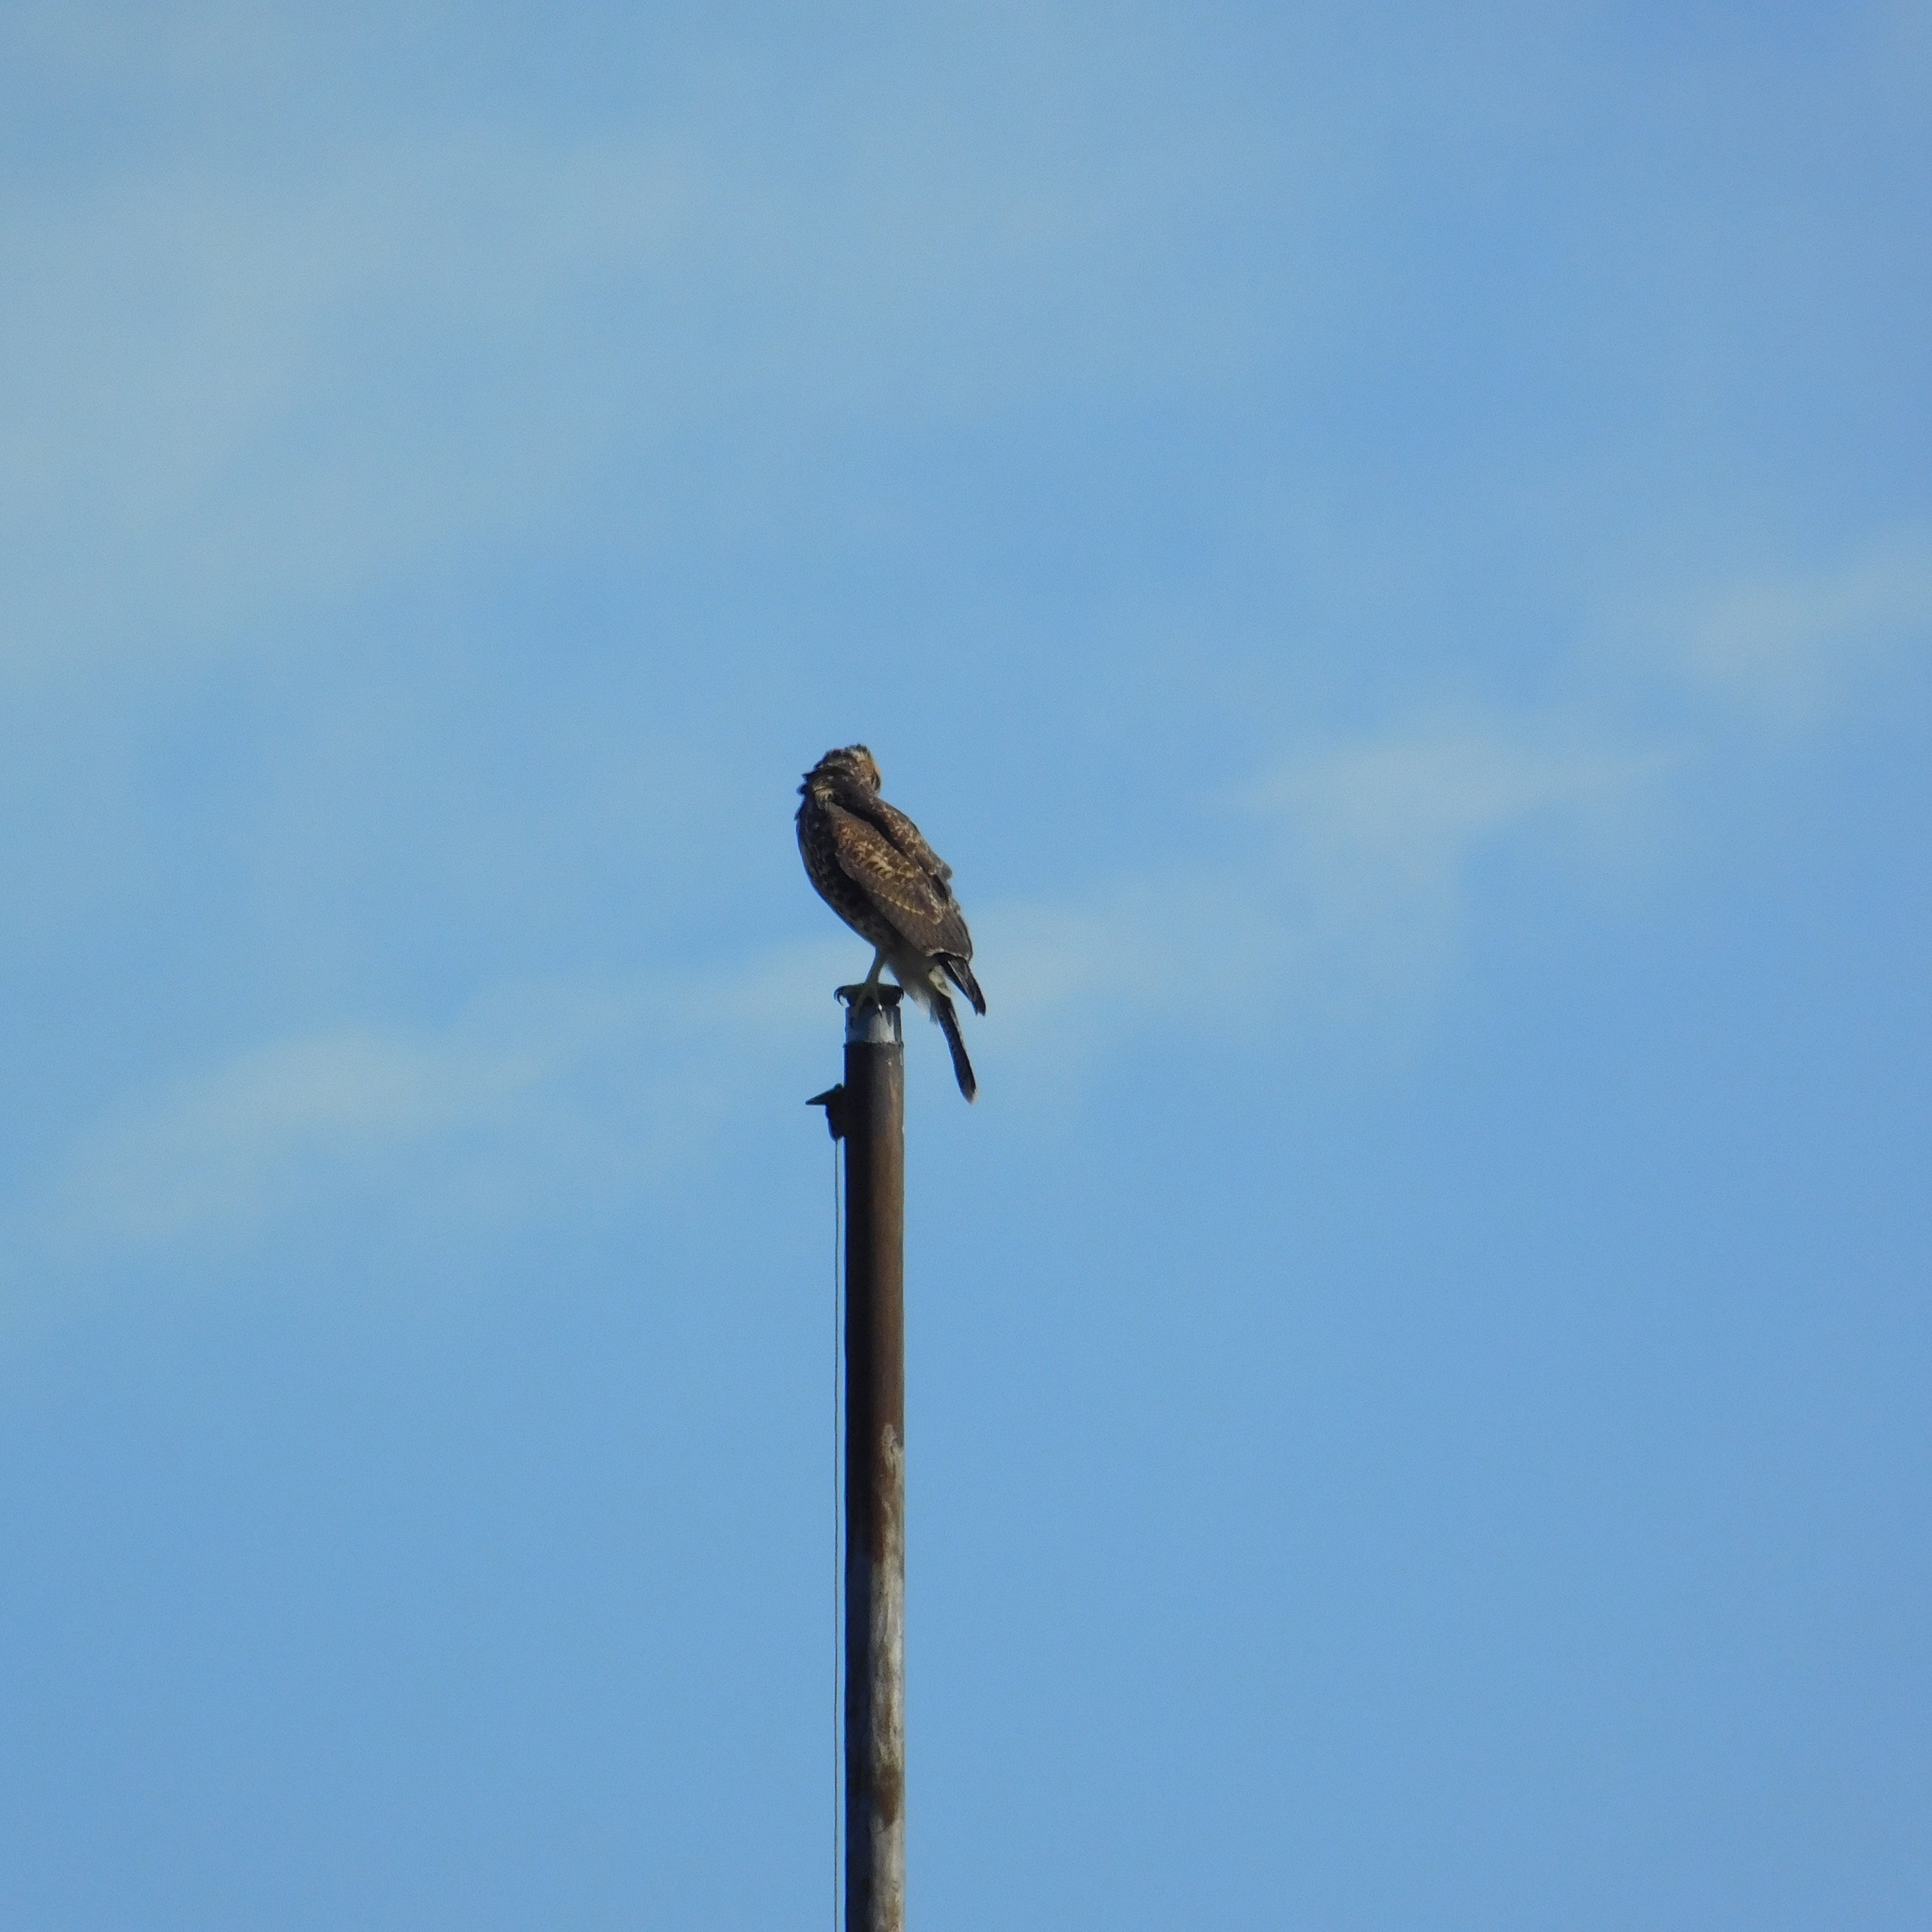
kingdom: Animalia
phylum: Chordata
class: Aves
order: Accipitriformes
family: Accipitridae
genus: Parabuteo
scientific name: Parabuteo unicinctus
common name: Harris's hawk
